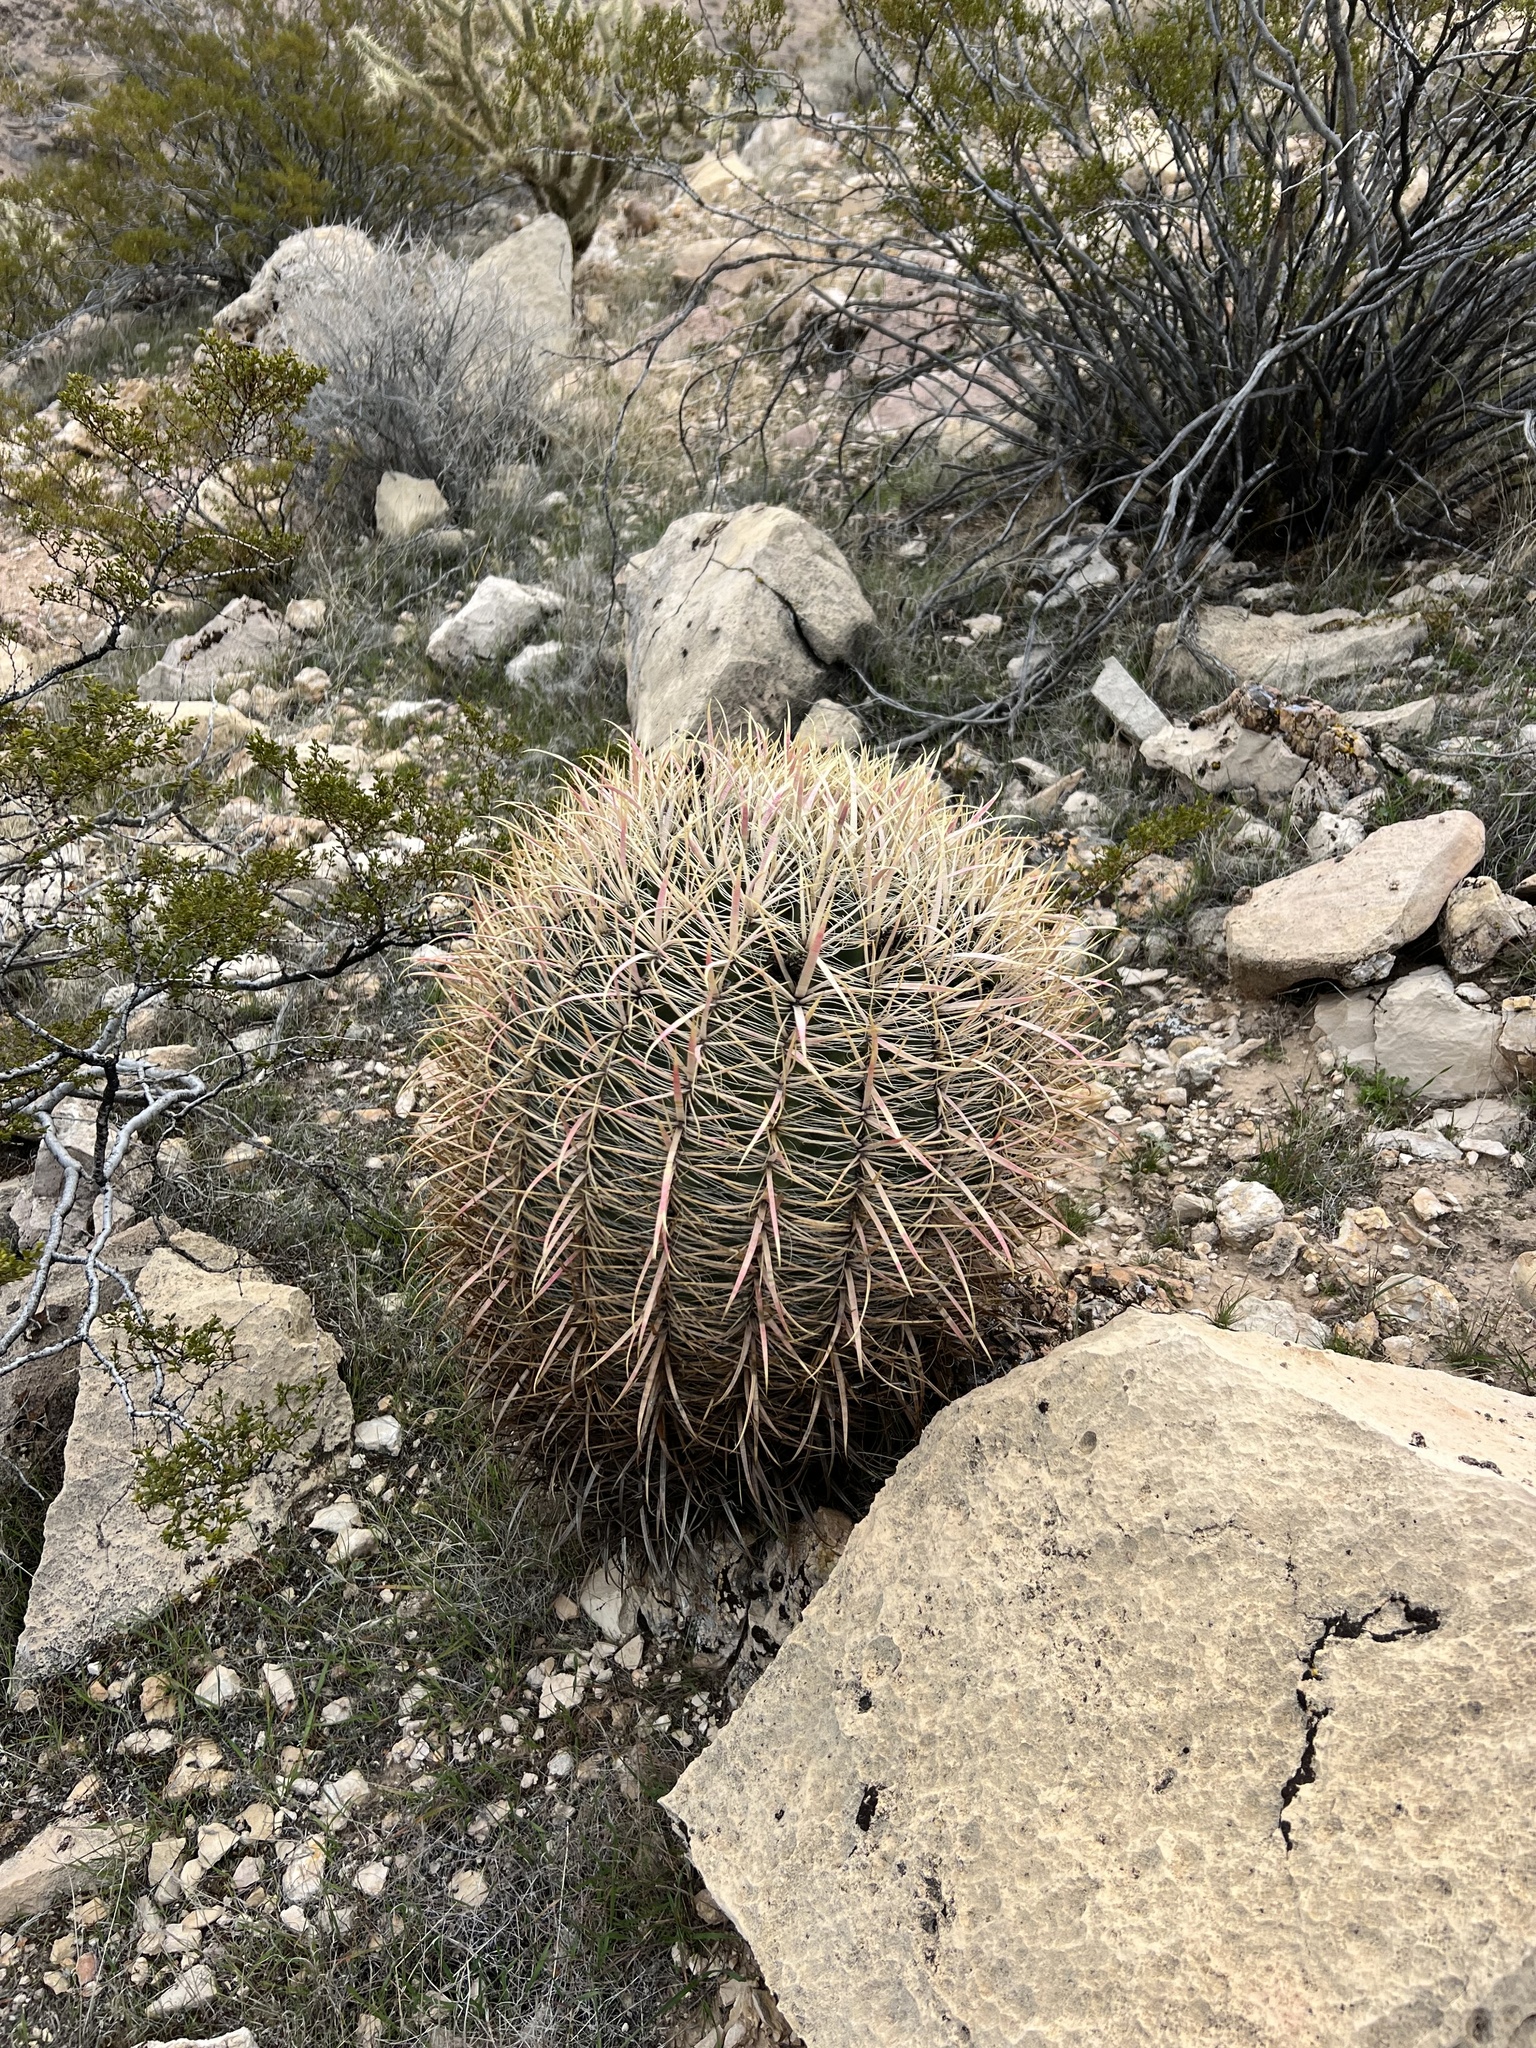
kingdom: Plantae
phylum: Tracheophyta
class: Magnoliopsida
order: Caryophyllales
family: Cactaceae
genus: Ferocactus
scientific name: Ferocactus cylindraceus
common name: California barrel cactus
